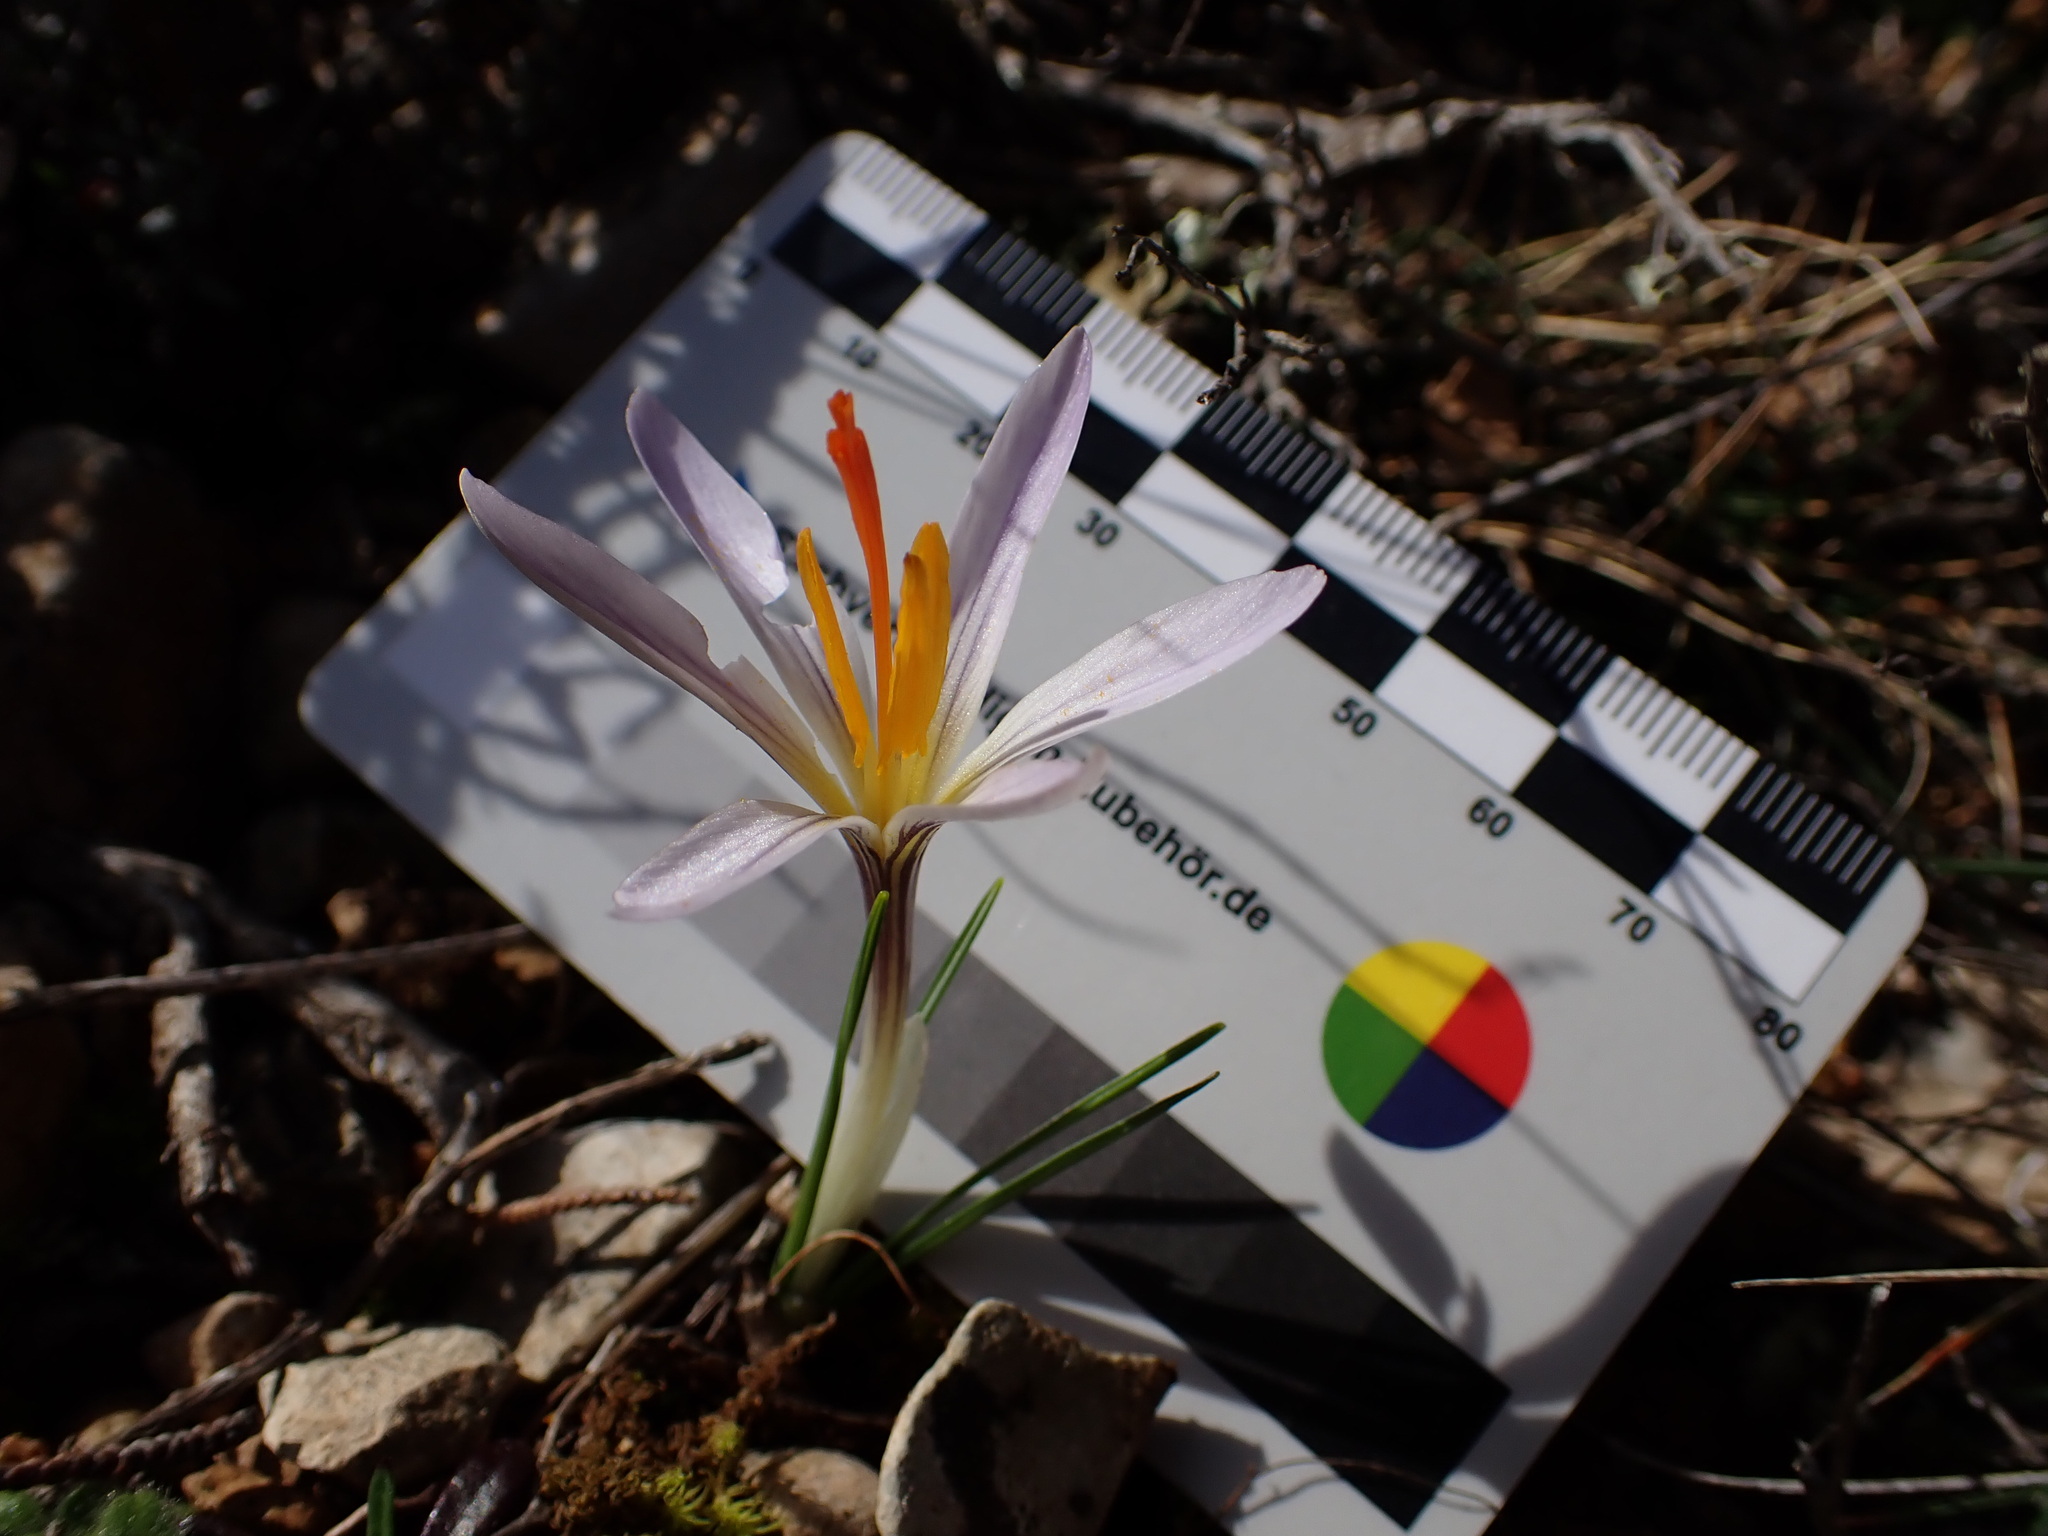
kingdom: Plantae
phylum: Tracheophyta
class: Liliopsida
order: Asparagales
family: Iridaceae
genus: Crocus
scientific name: Crocus versicolor
